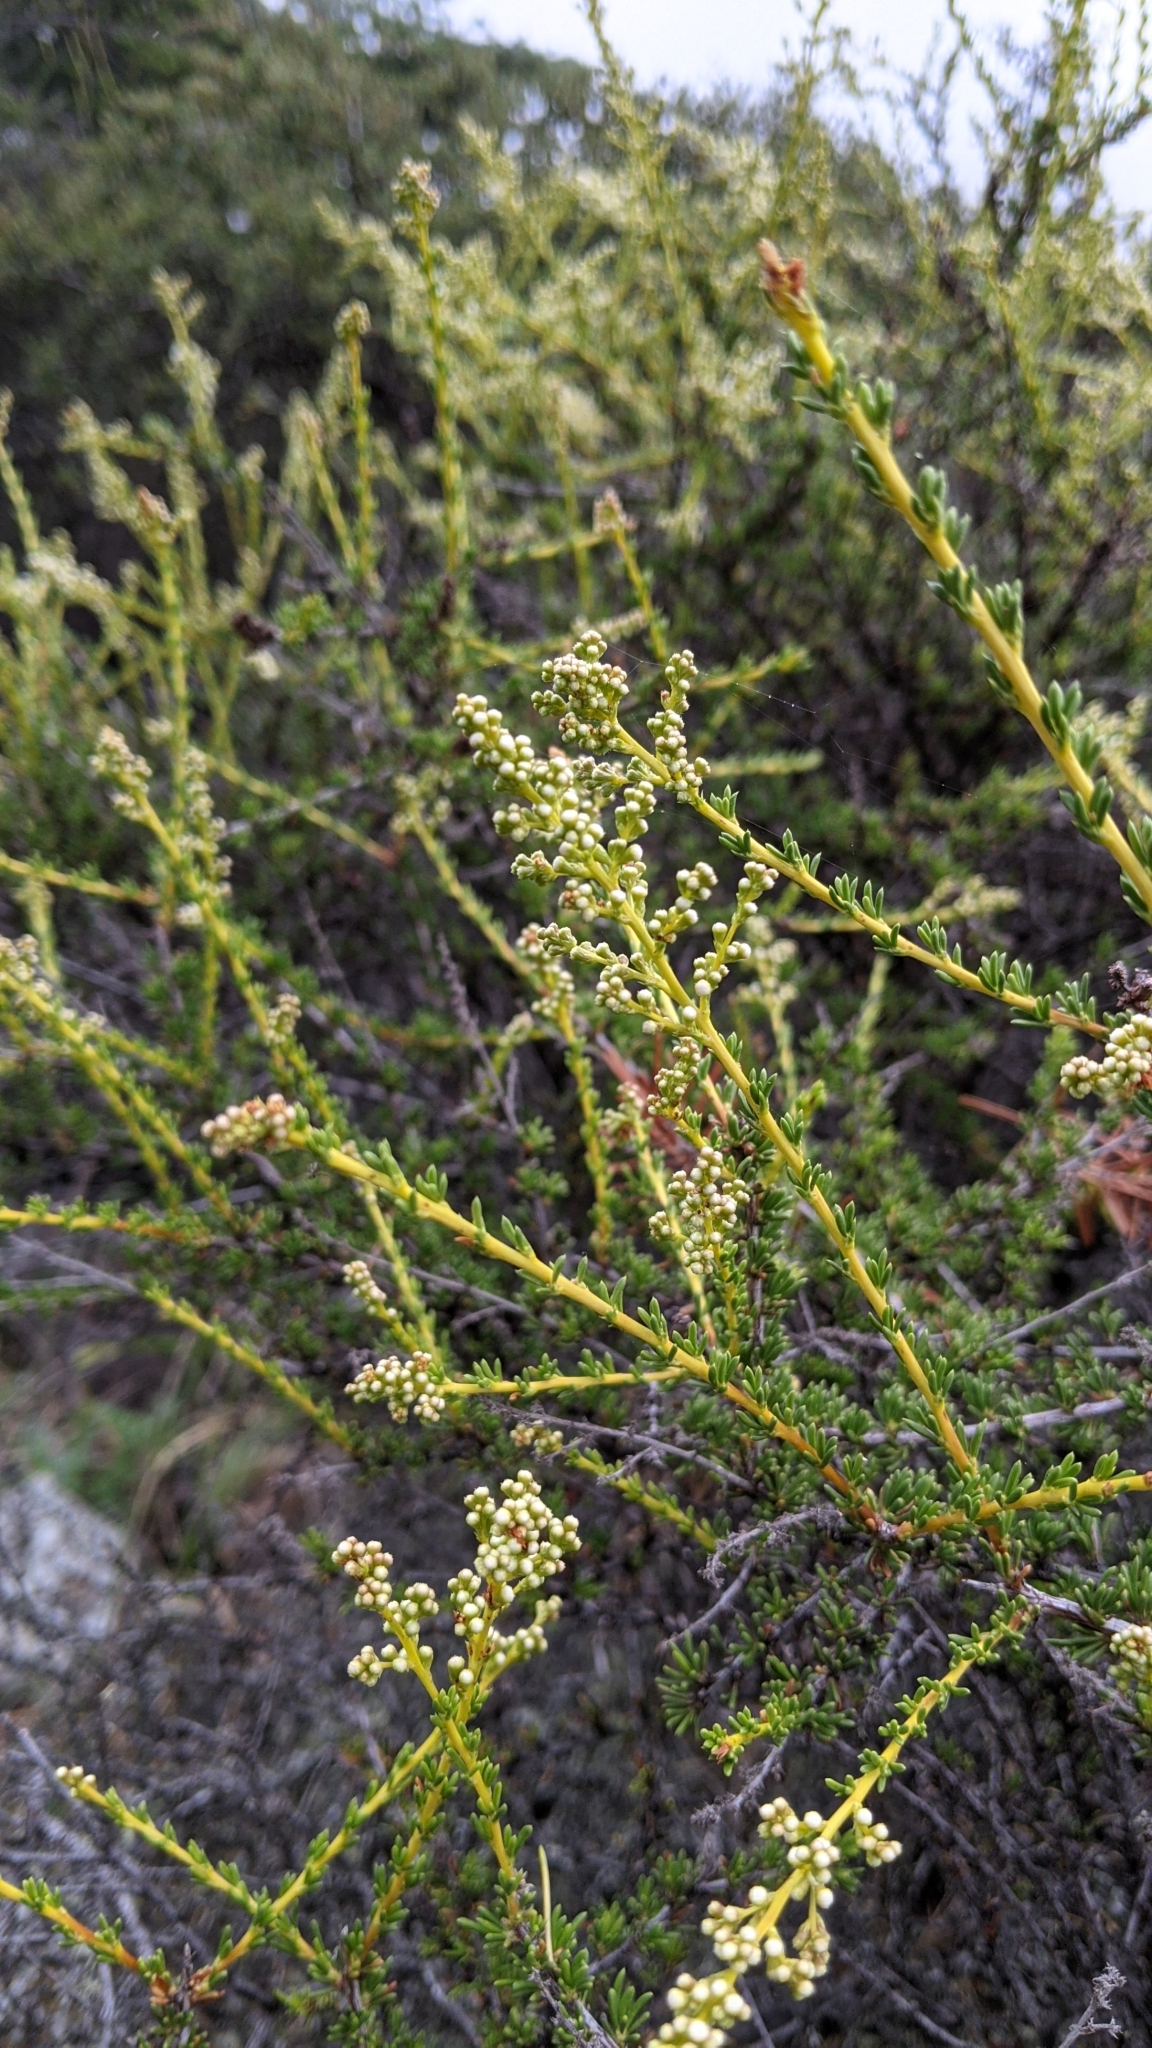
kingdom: Plantae
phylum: Tracheophyta
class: Magnoliopsida
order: Rosales
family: Rosaceae
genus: Adenostoma
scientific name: Adenostoma fasciculatum
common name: Chamise
